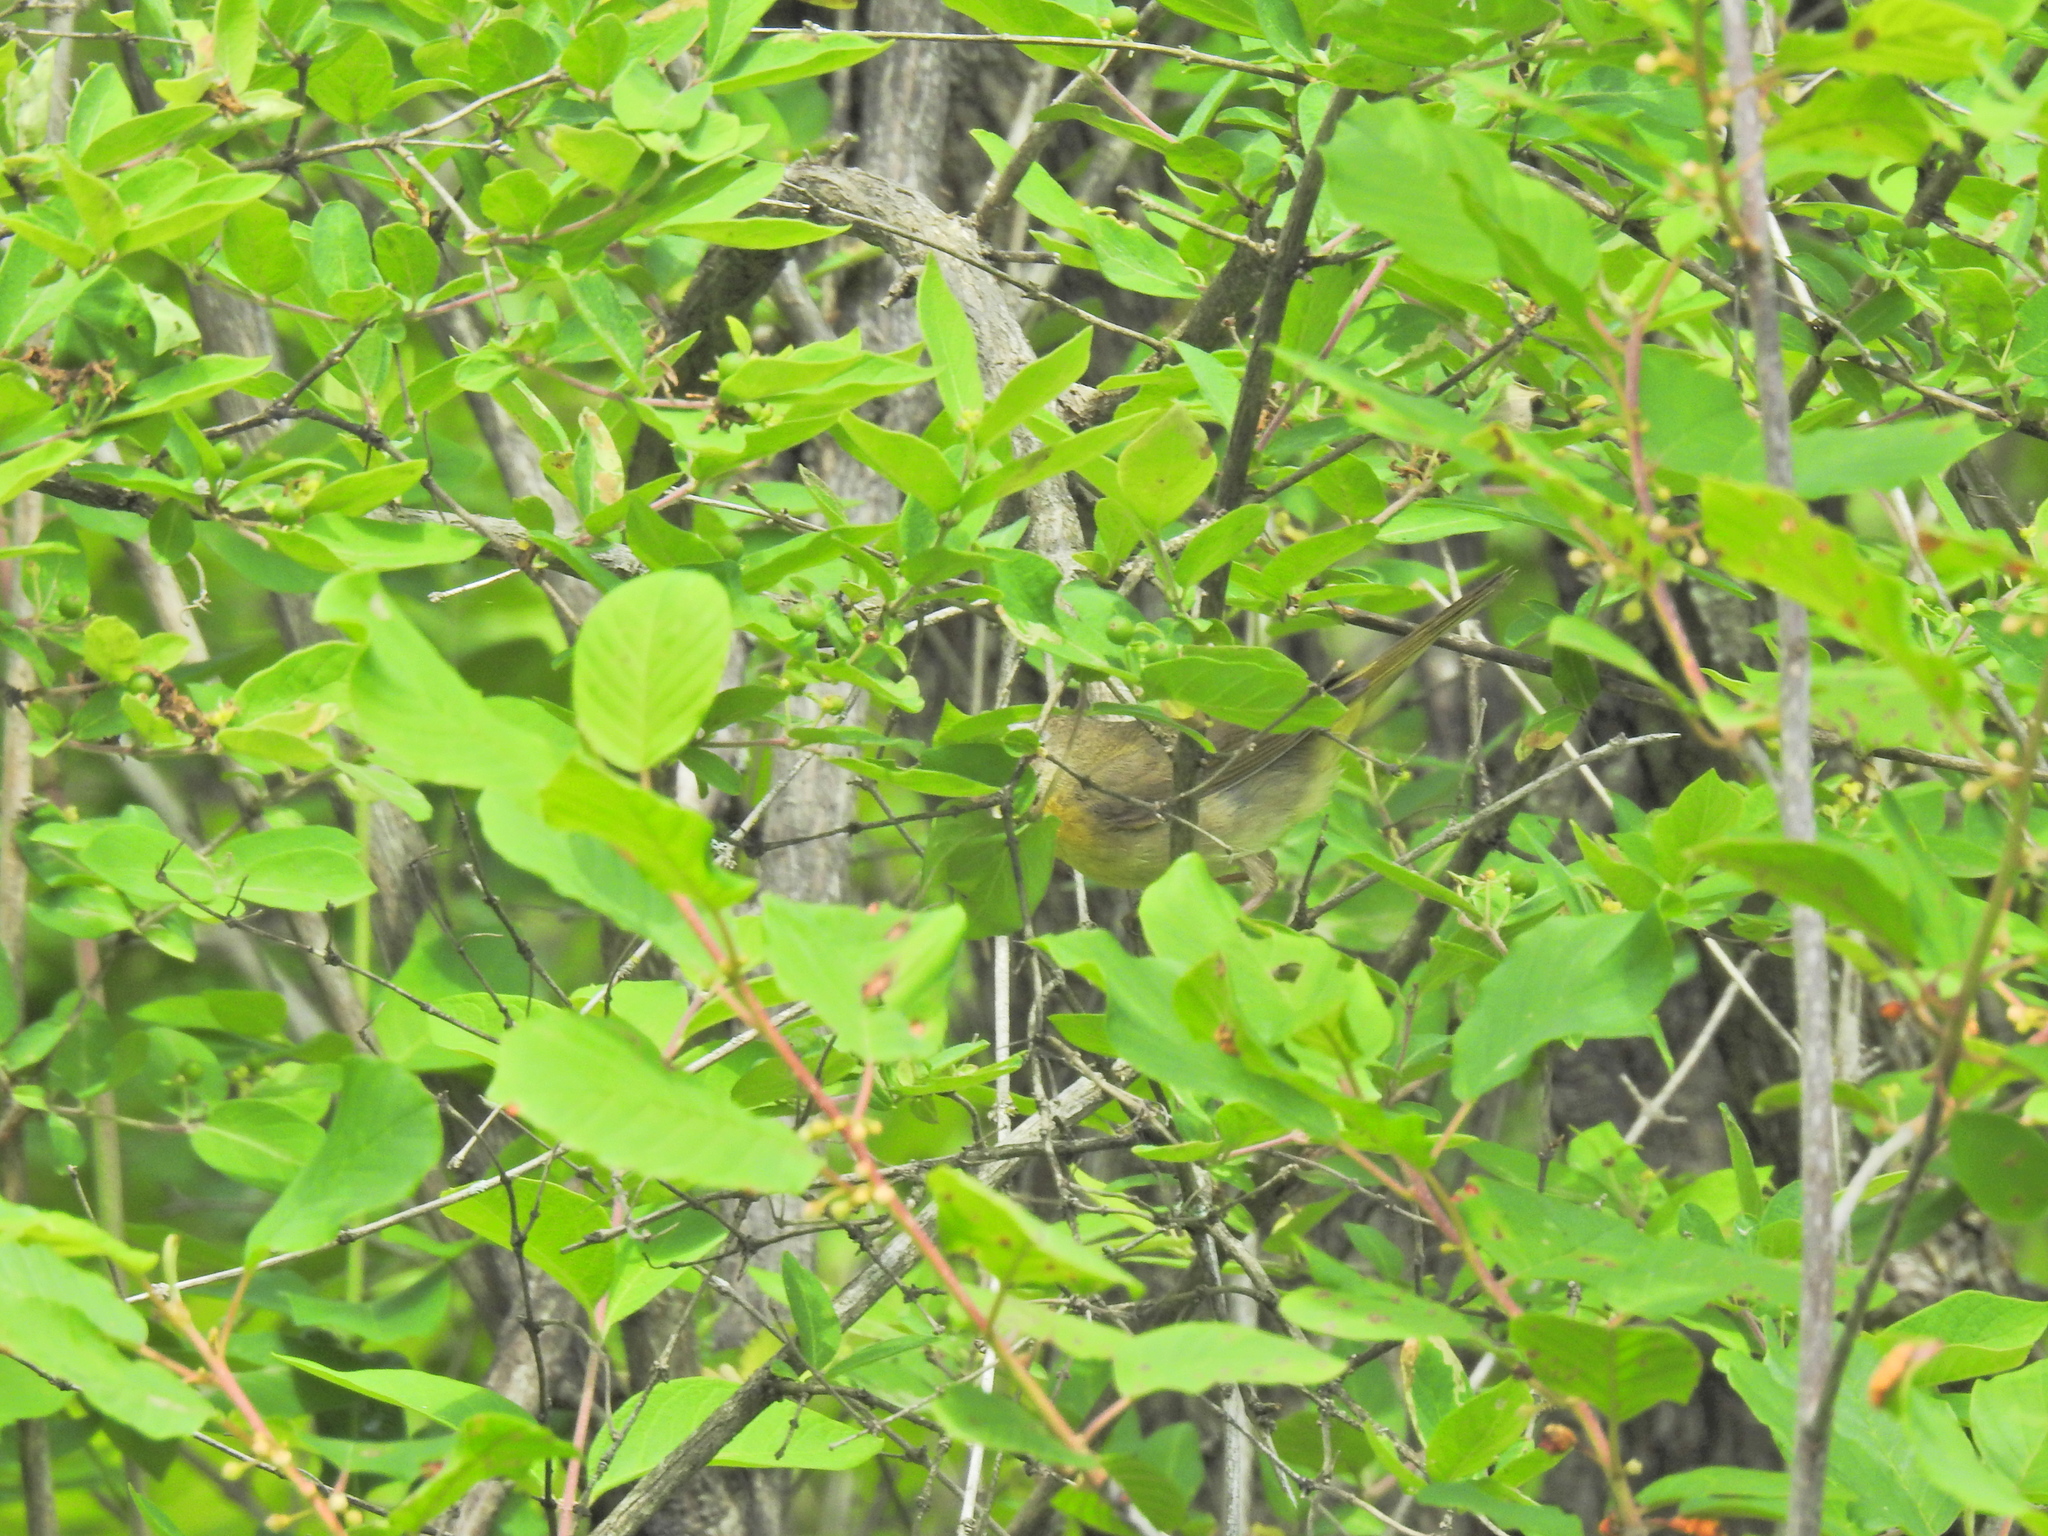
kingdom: Animalia
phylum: Chordata
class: Aves
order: Passeriformes
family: Parulidae
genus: Setophaga
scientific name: Setophaga ruticilla
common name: American redstart
